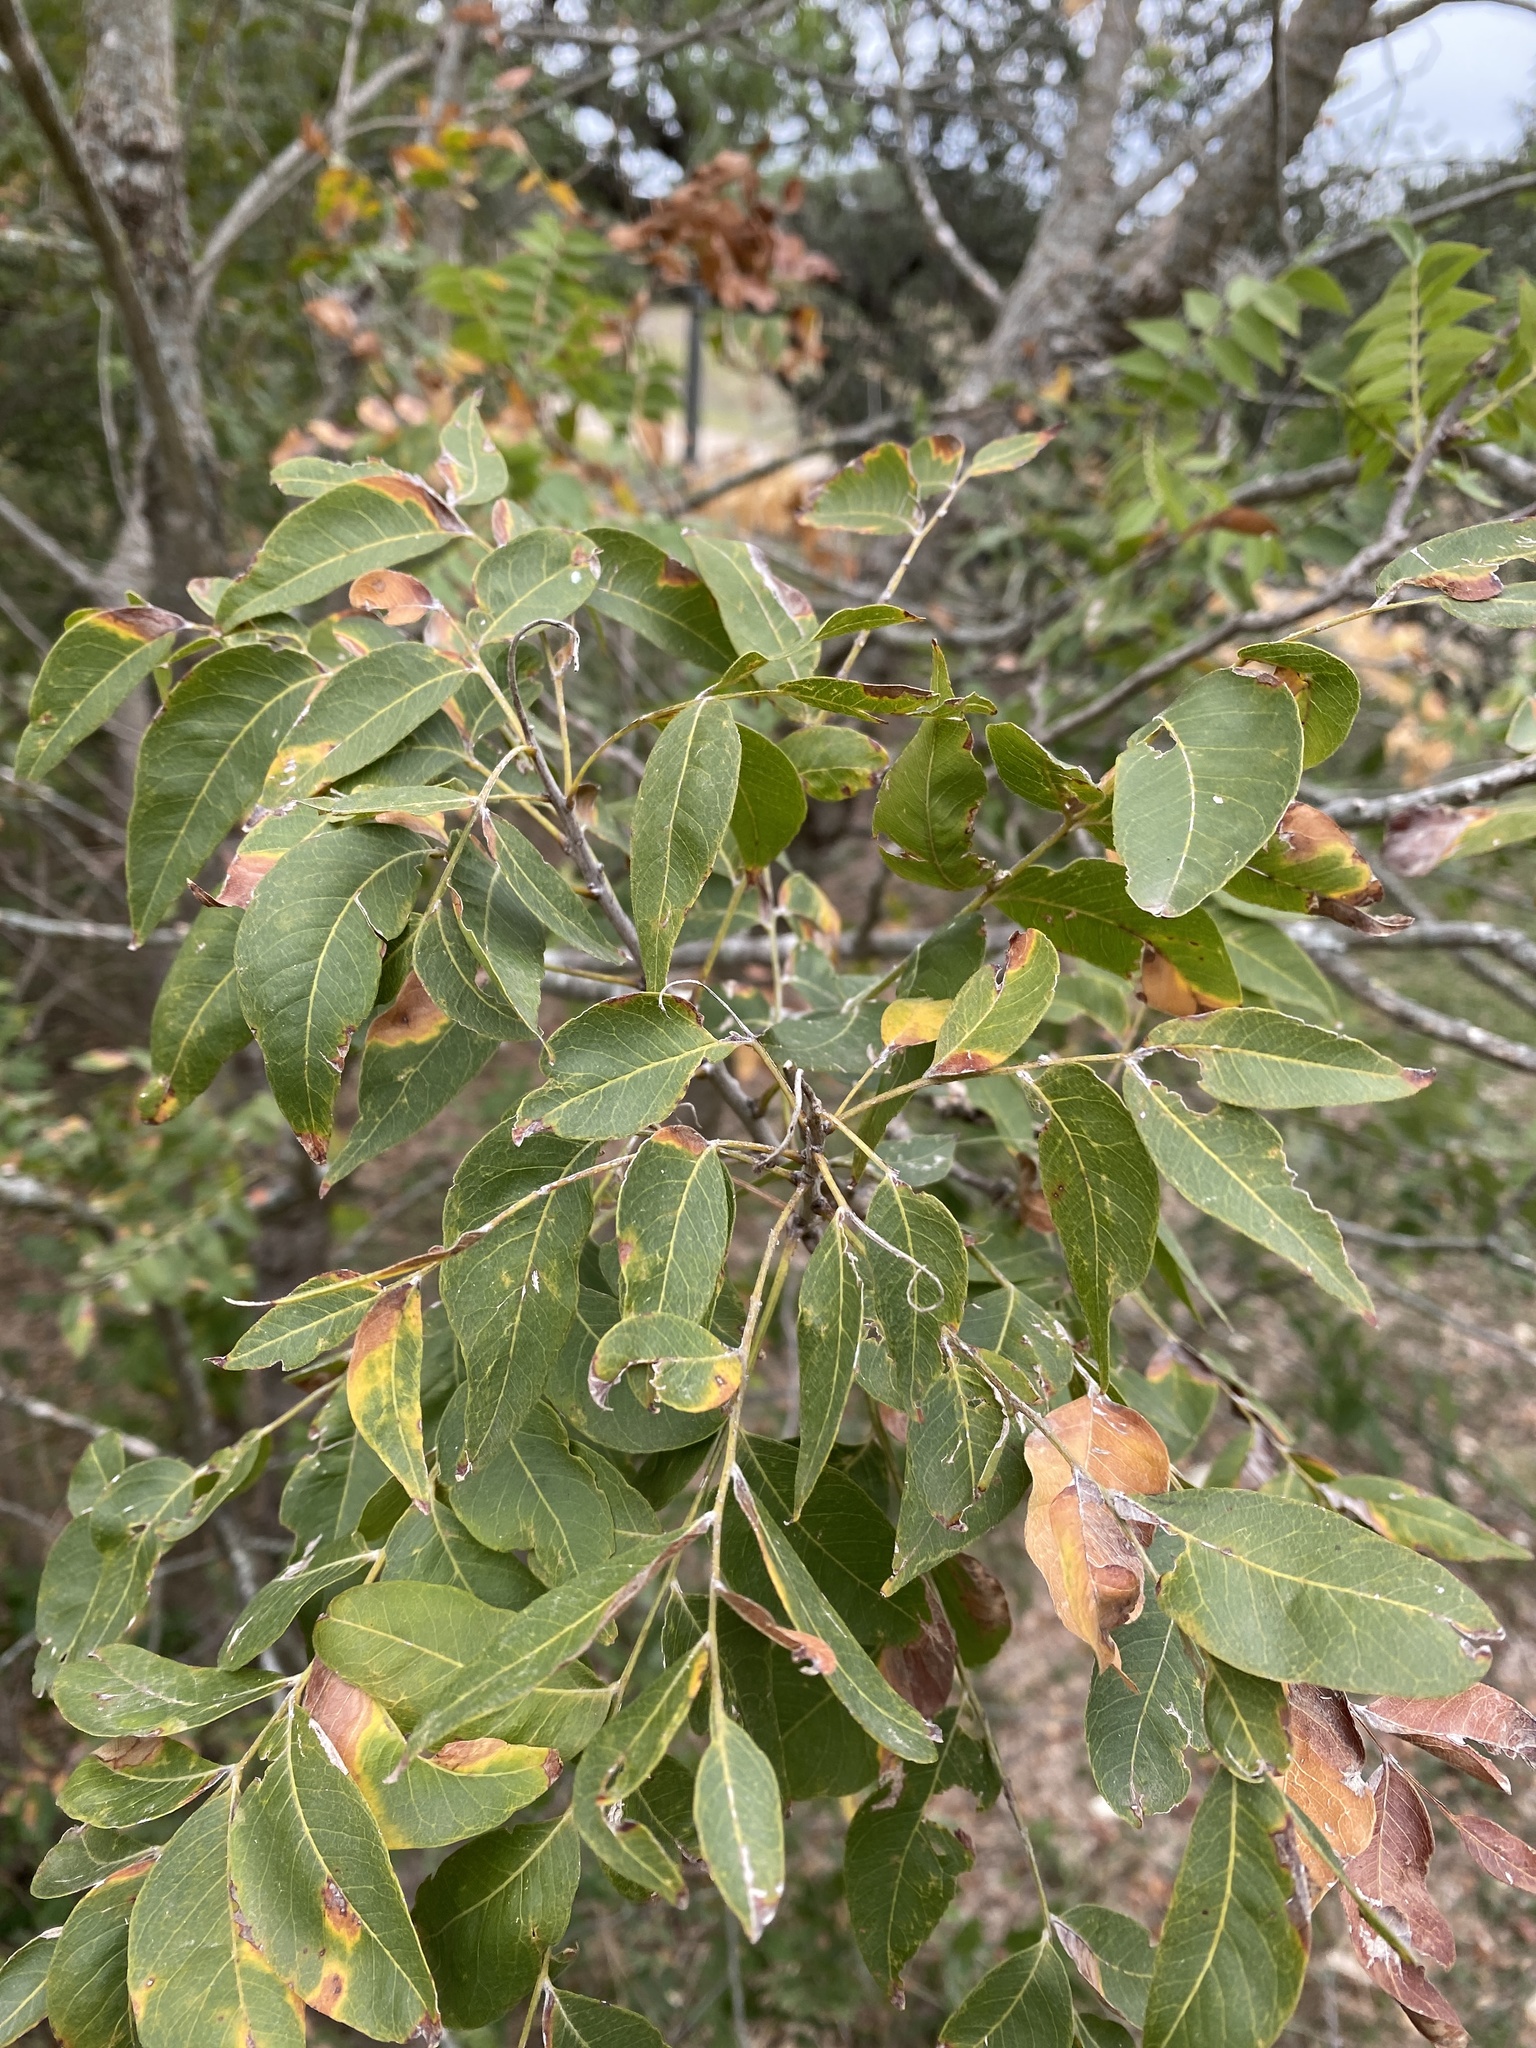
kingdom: Plantae
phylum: Tracheophyta
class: Magnoliopsida
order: Sapindales
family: Sapindaceae
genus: Sapindus
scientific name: Sapindus drummondii
